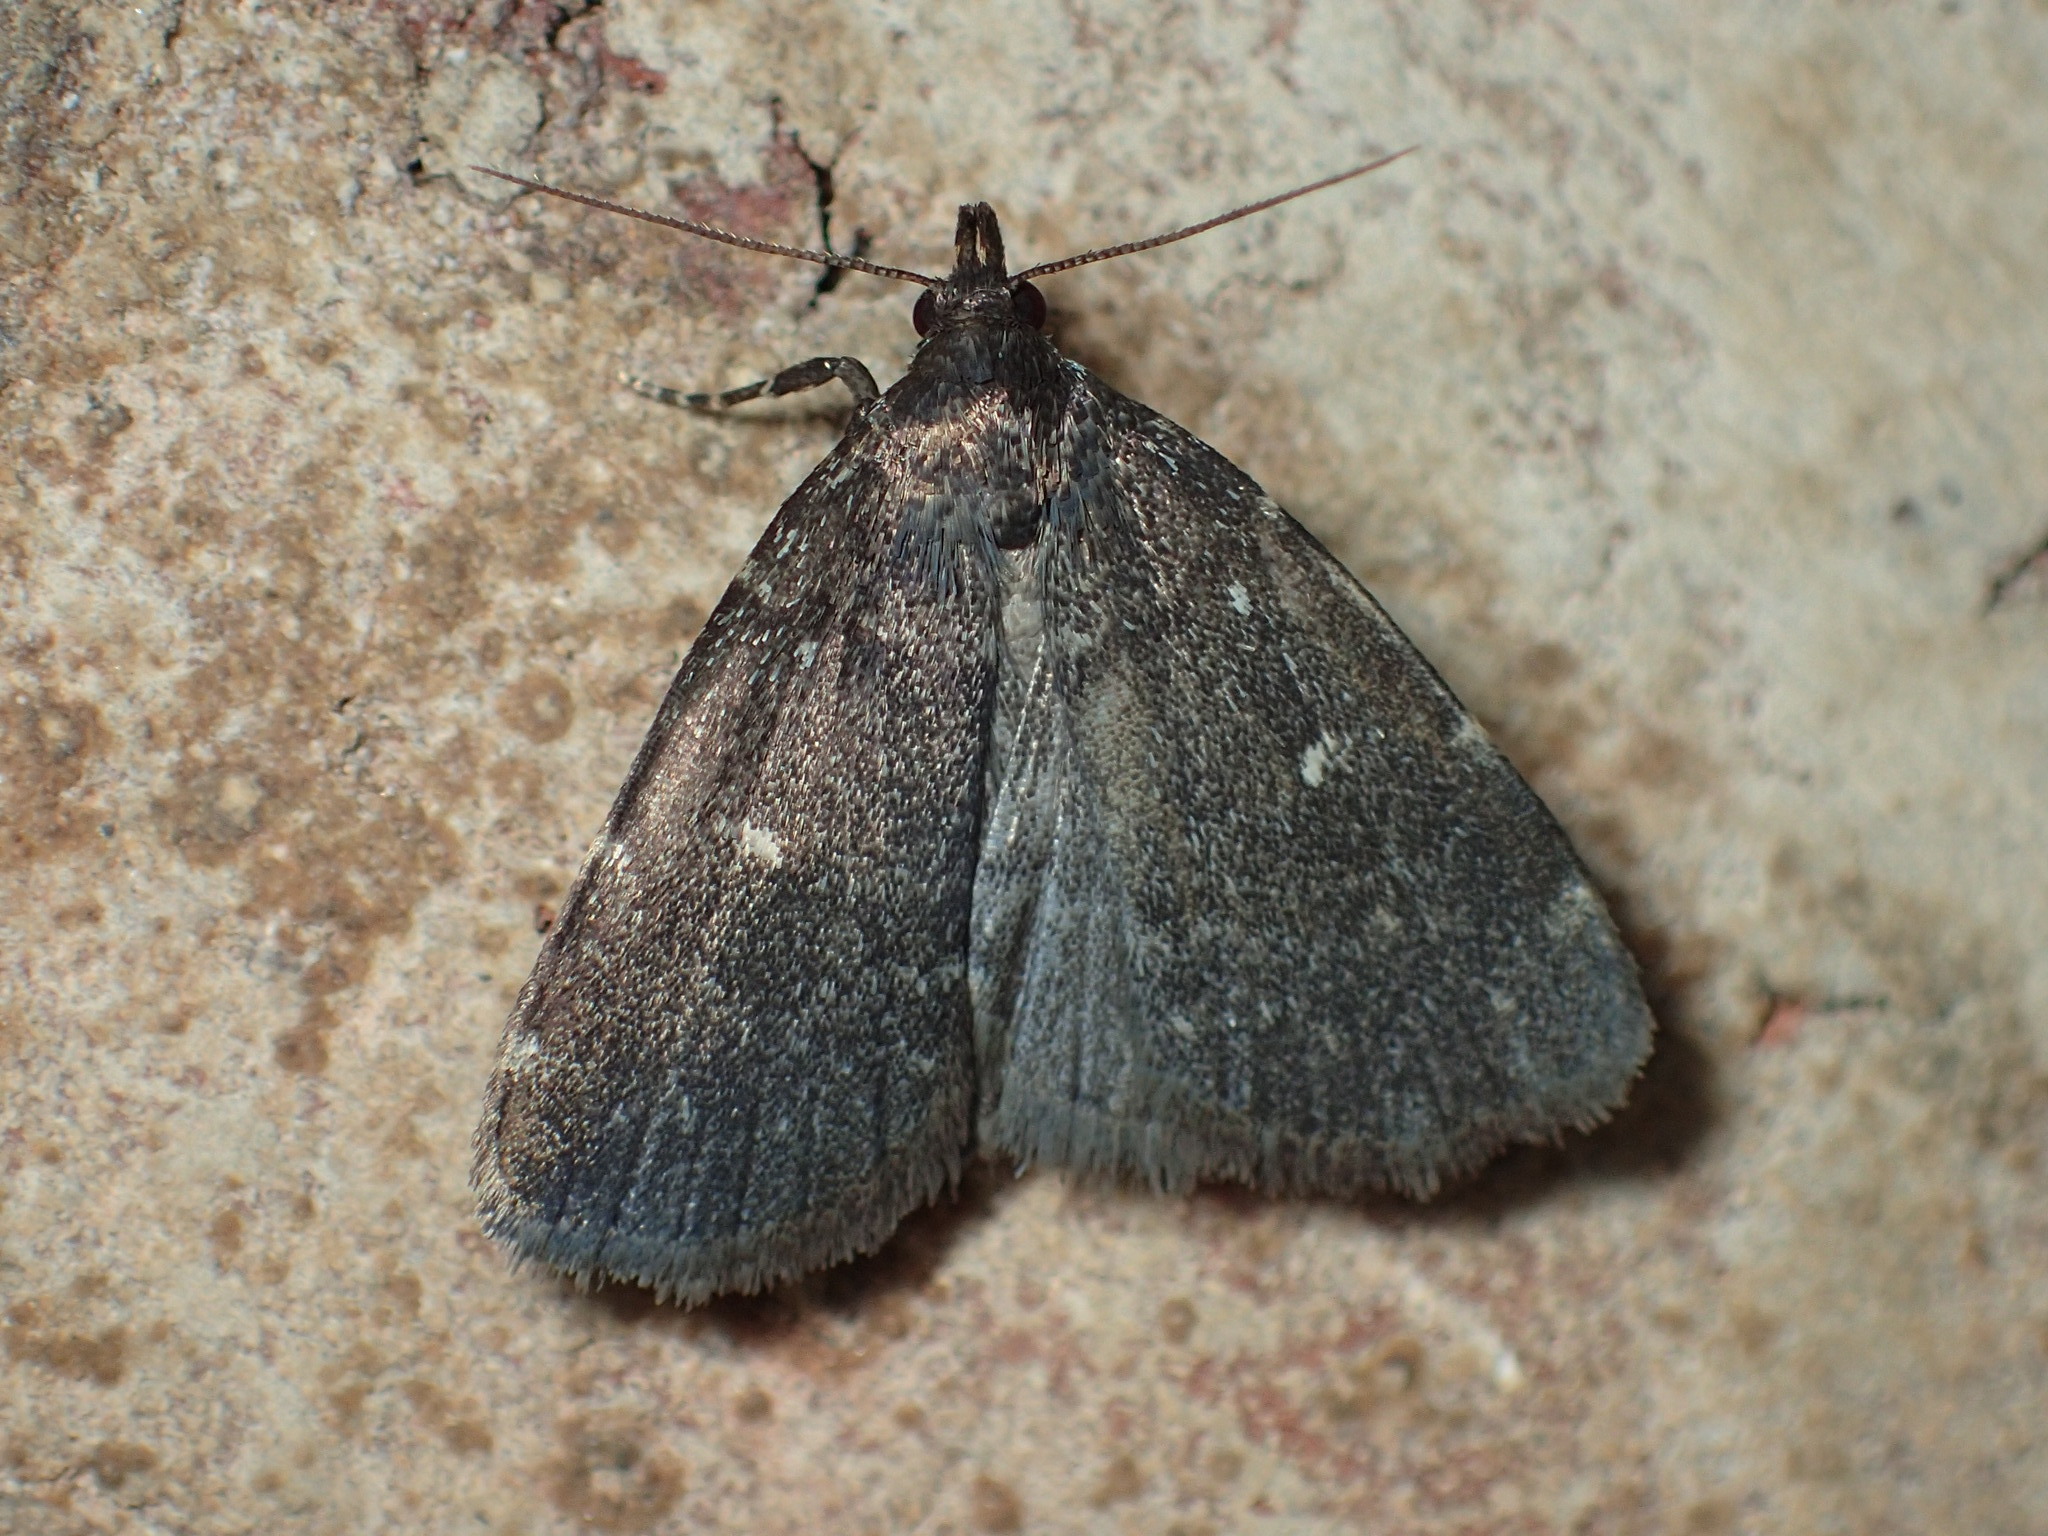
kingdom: Animalia
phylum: Arthropoda
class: Insecta
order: Lepidoptera
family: Erebidae
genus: Idia
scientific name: Idia julia
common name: Julia's idia moth
